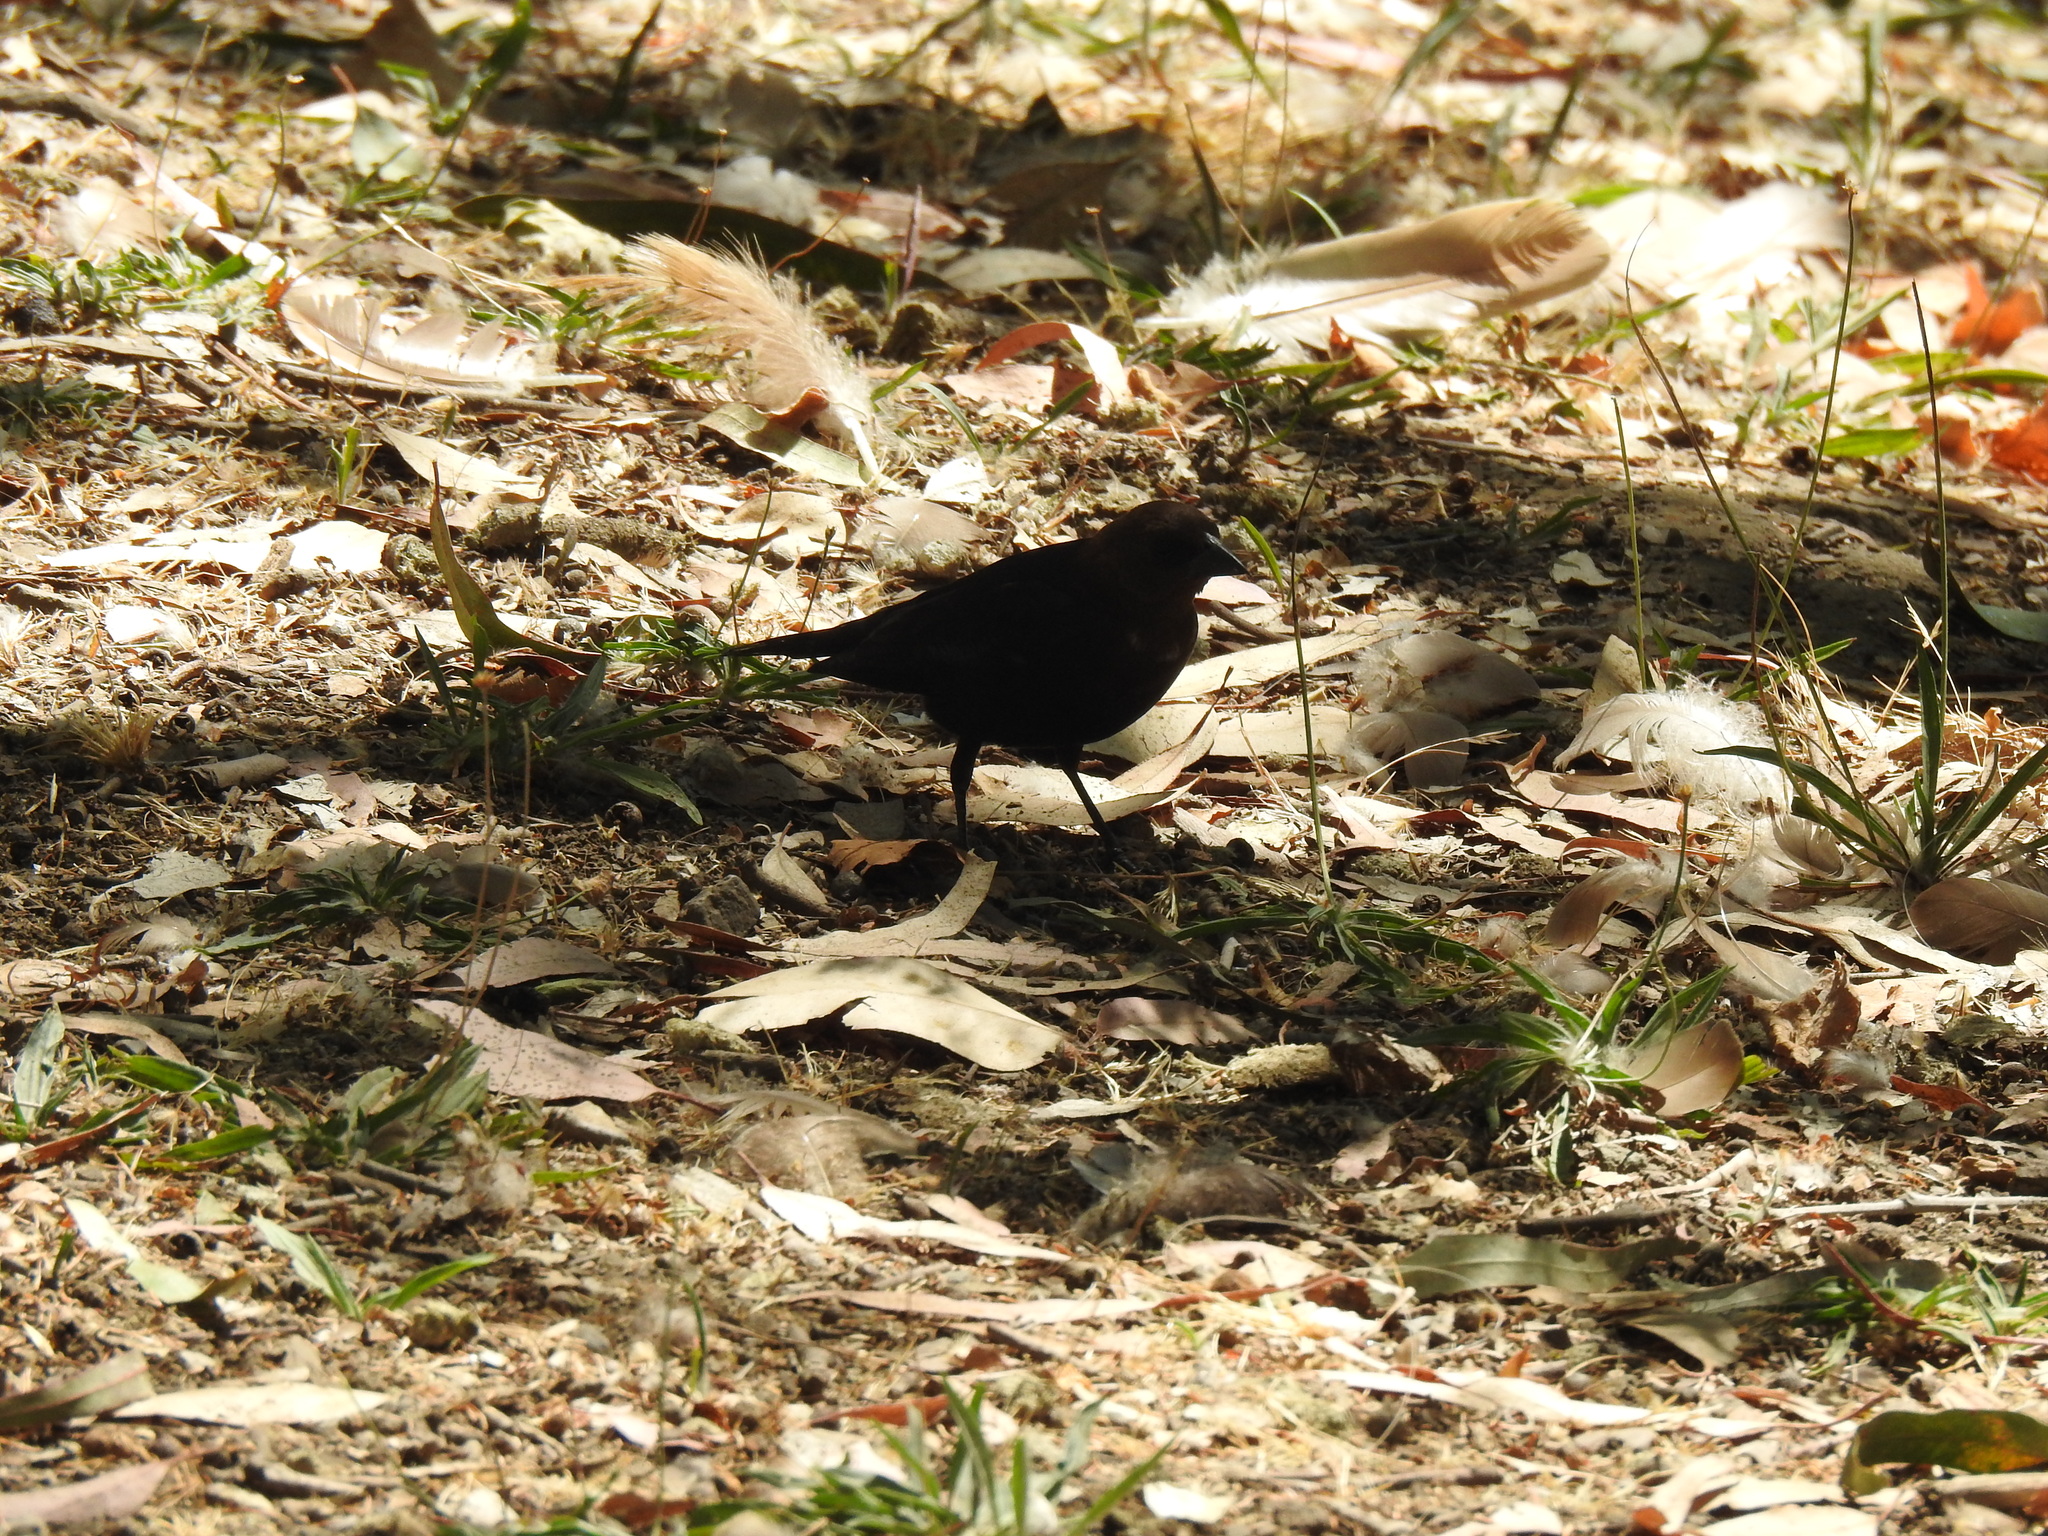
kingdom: Animalia
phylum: Chordata
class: Aves
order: Passeriformes
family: Icteridae
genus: Molothrus
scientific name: Molothrus ater
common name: Brown-headed cowbird
